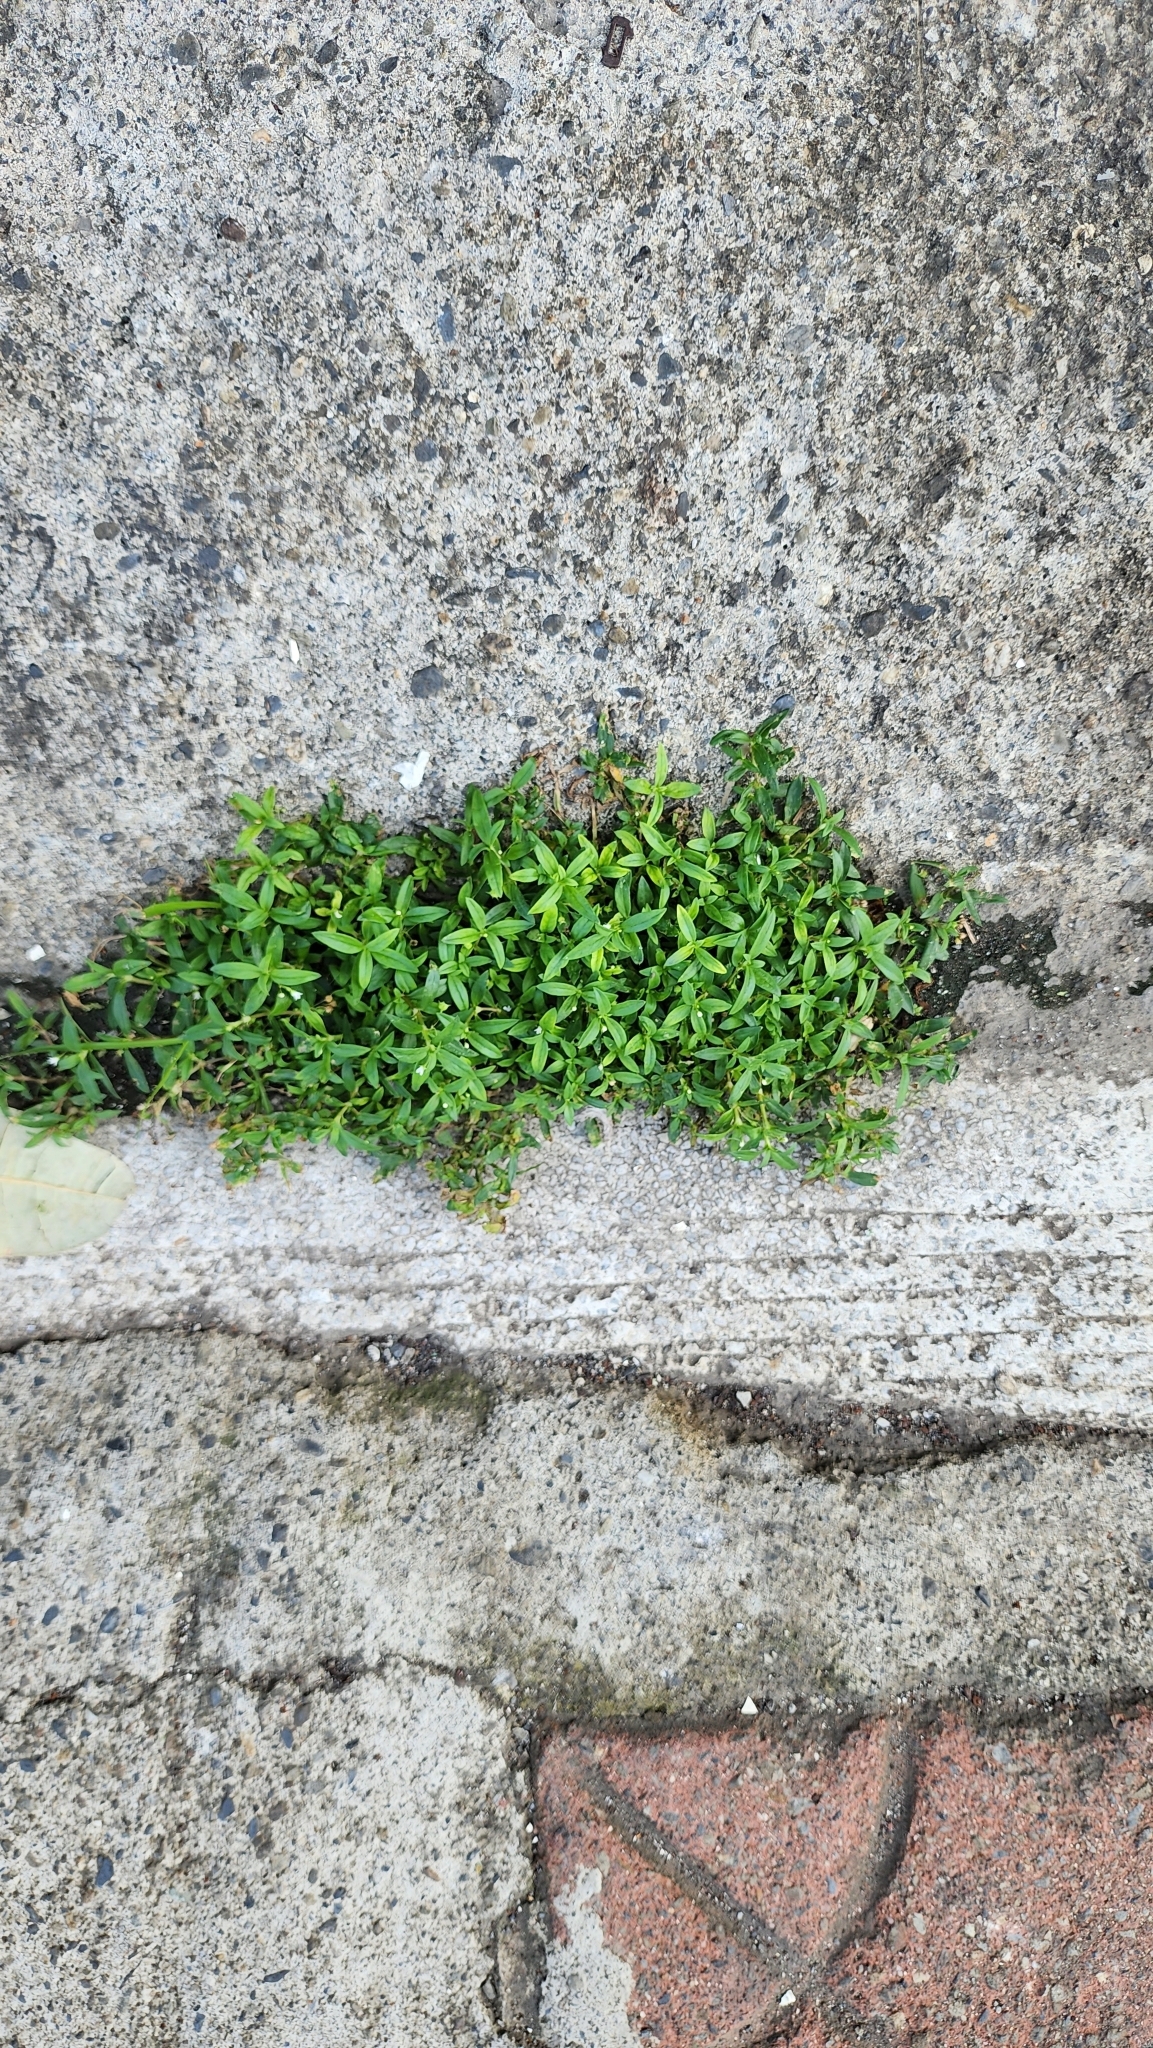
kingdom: Plantae
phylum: Tracheophyta
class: Magnoliopsida
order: Gentianales
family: Rubiaceae
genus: Oldenlandia
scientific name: Oldenlandia corymbosa
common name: Flat-top mille graines
